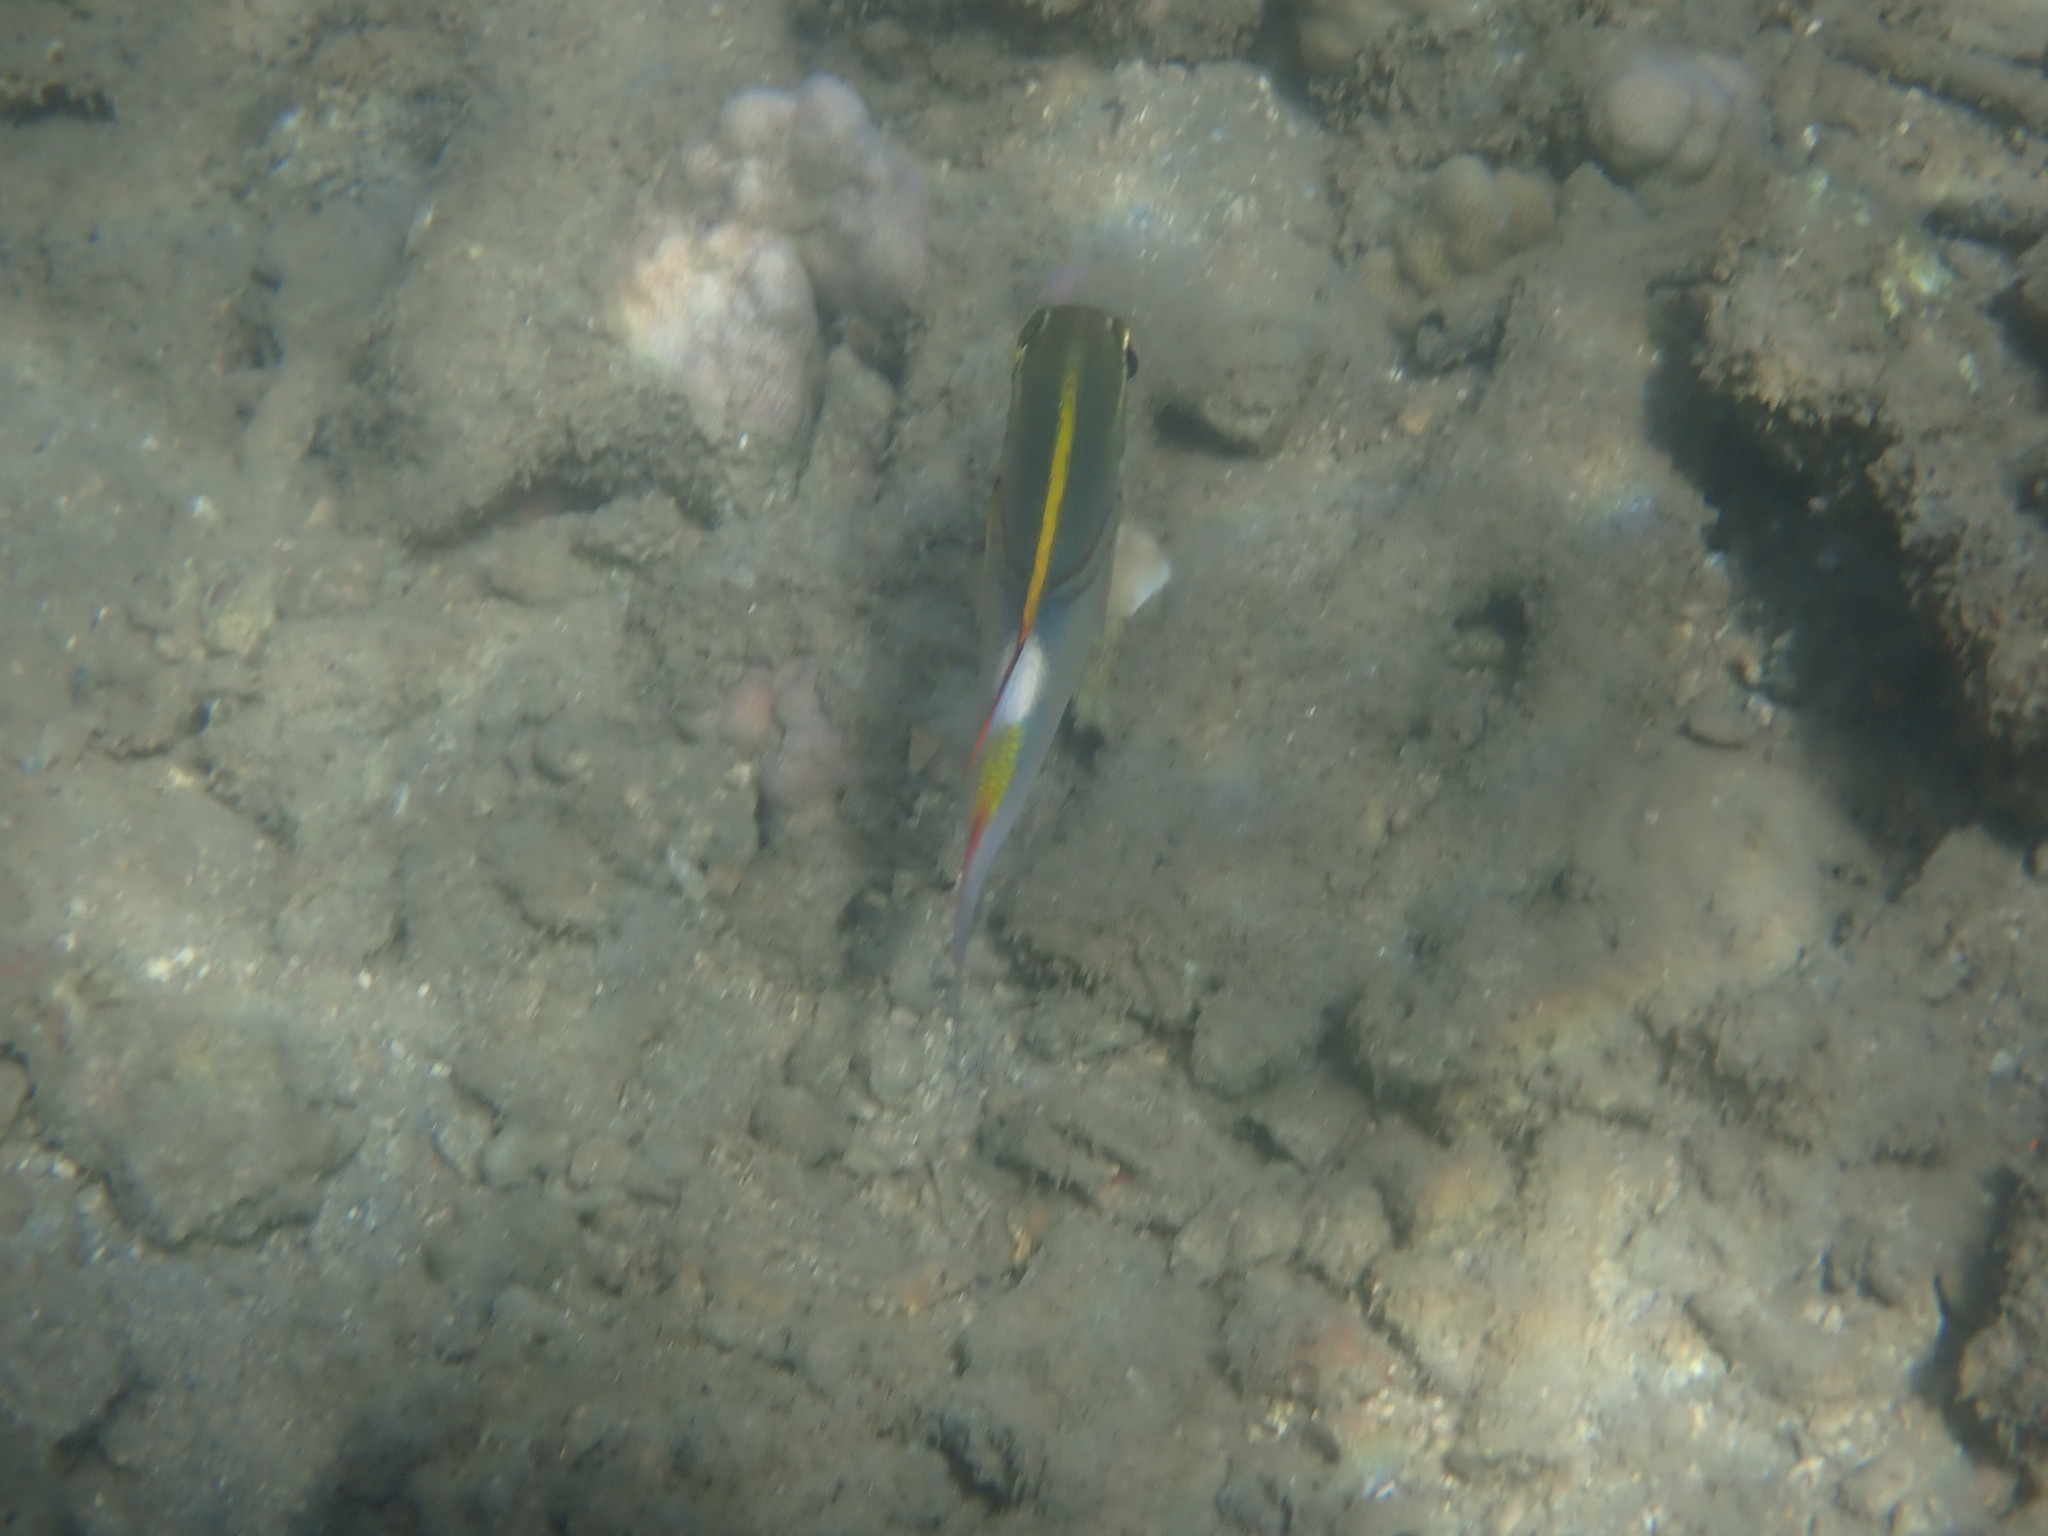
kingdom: Animalia
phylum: Chordata
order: Perciformes
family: Nemipteridae
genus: Scolopsis
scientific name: Scolopsis bilineata
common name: Two-lined monocle bream
